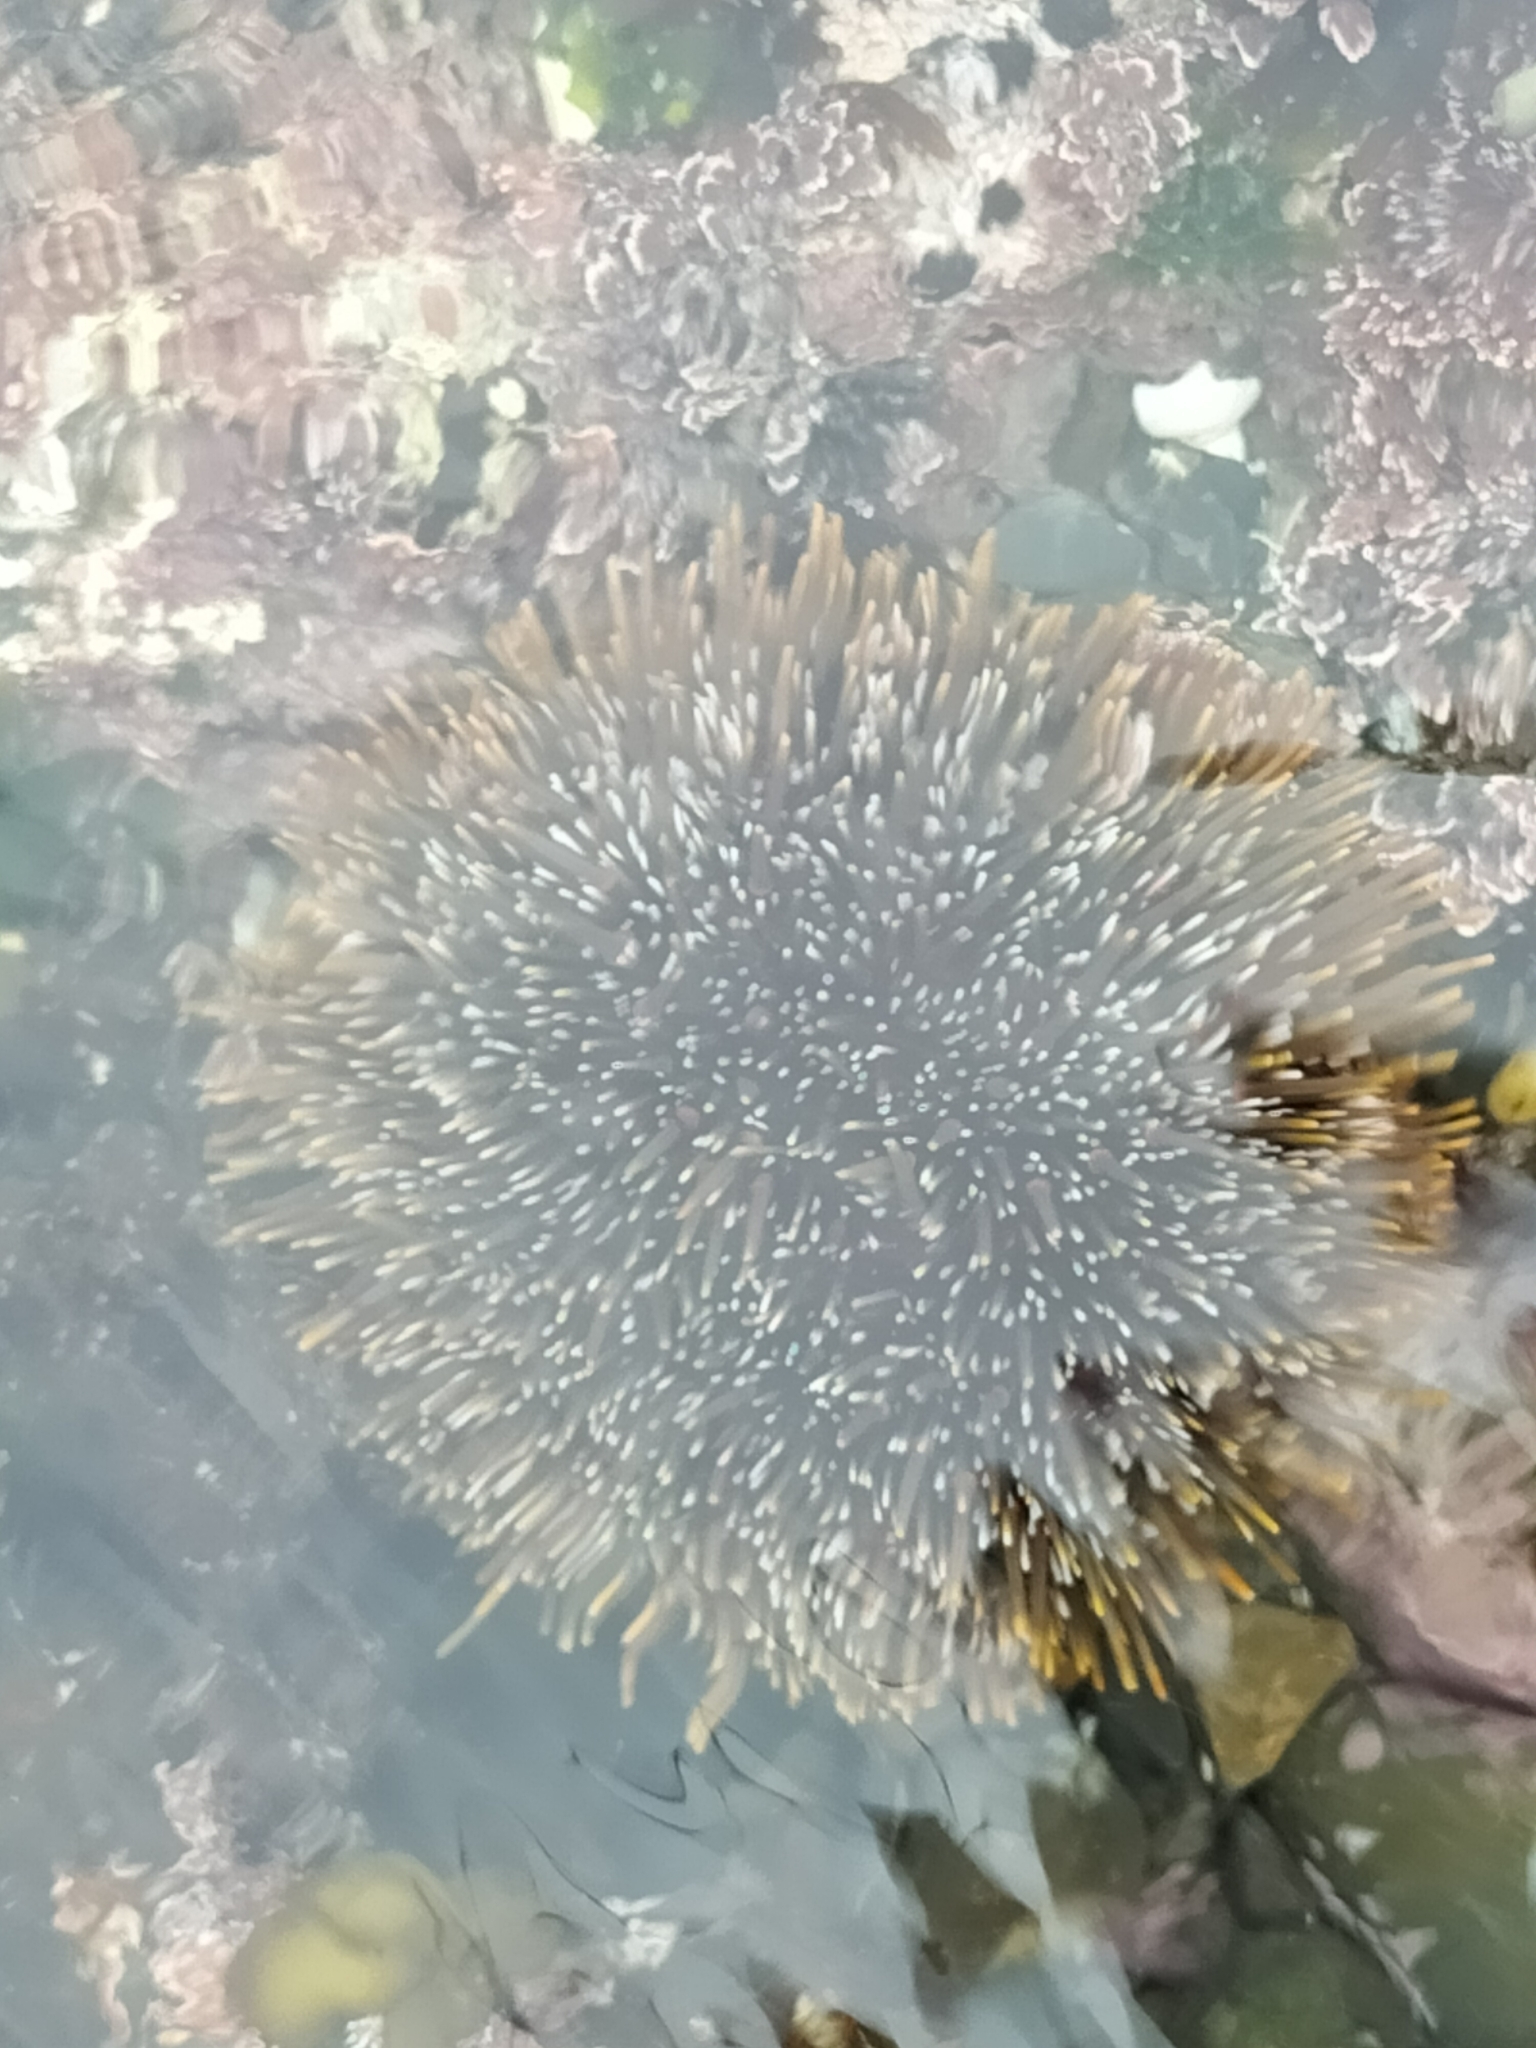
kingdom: Animalia
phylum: Echinodermata
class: Echinoidea
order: Camarodonta
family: Echinometridae
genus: Evechinus
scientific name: Evechinus chloroticus
